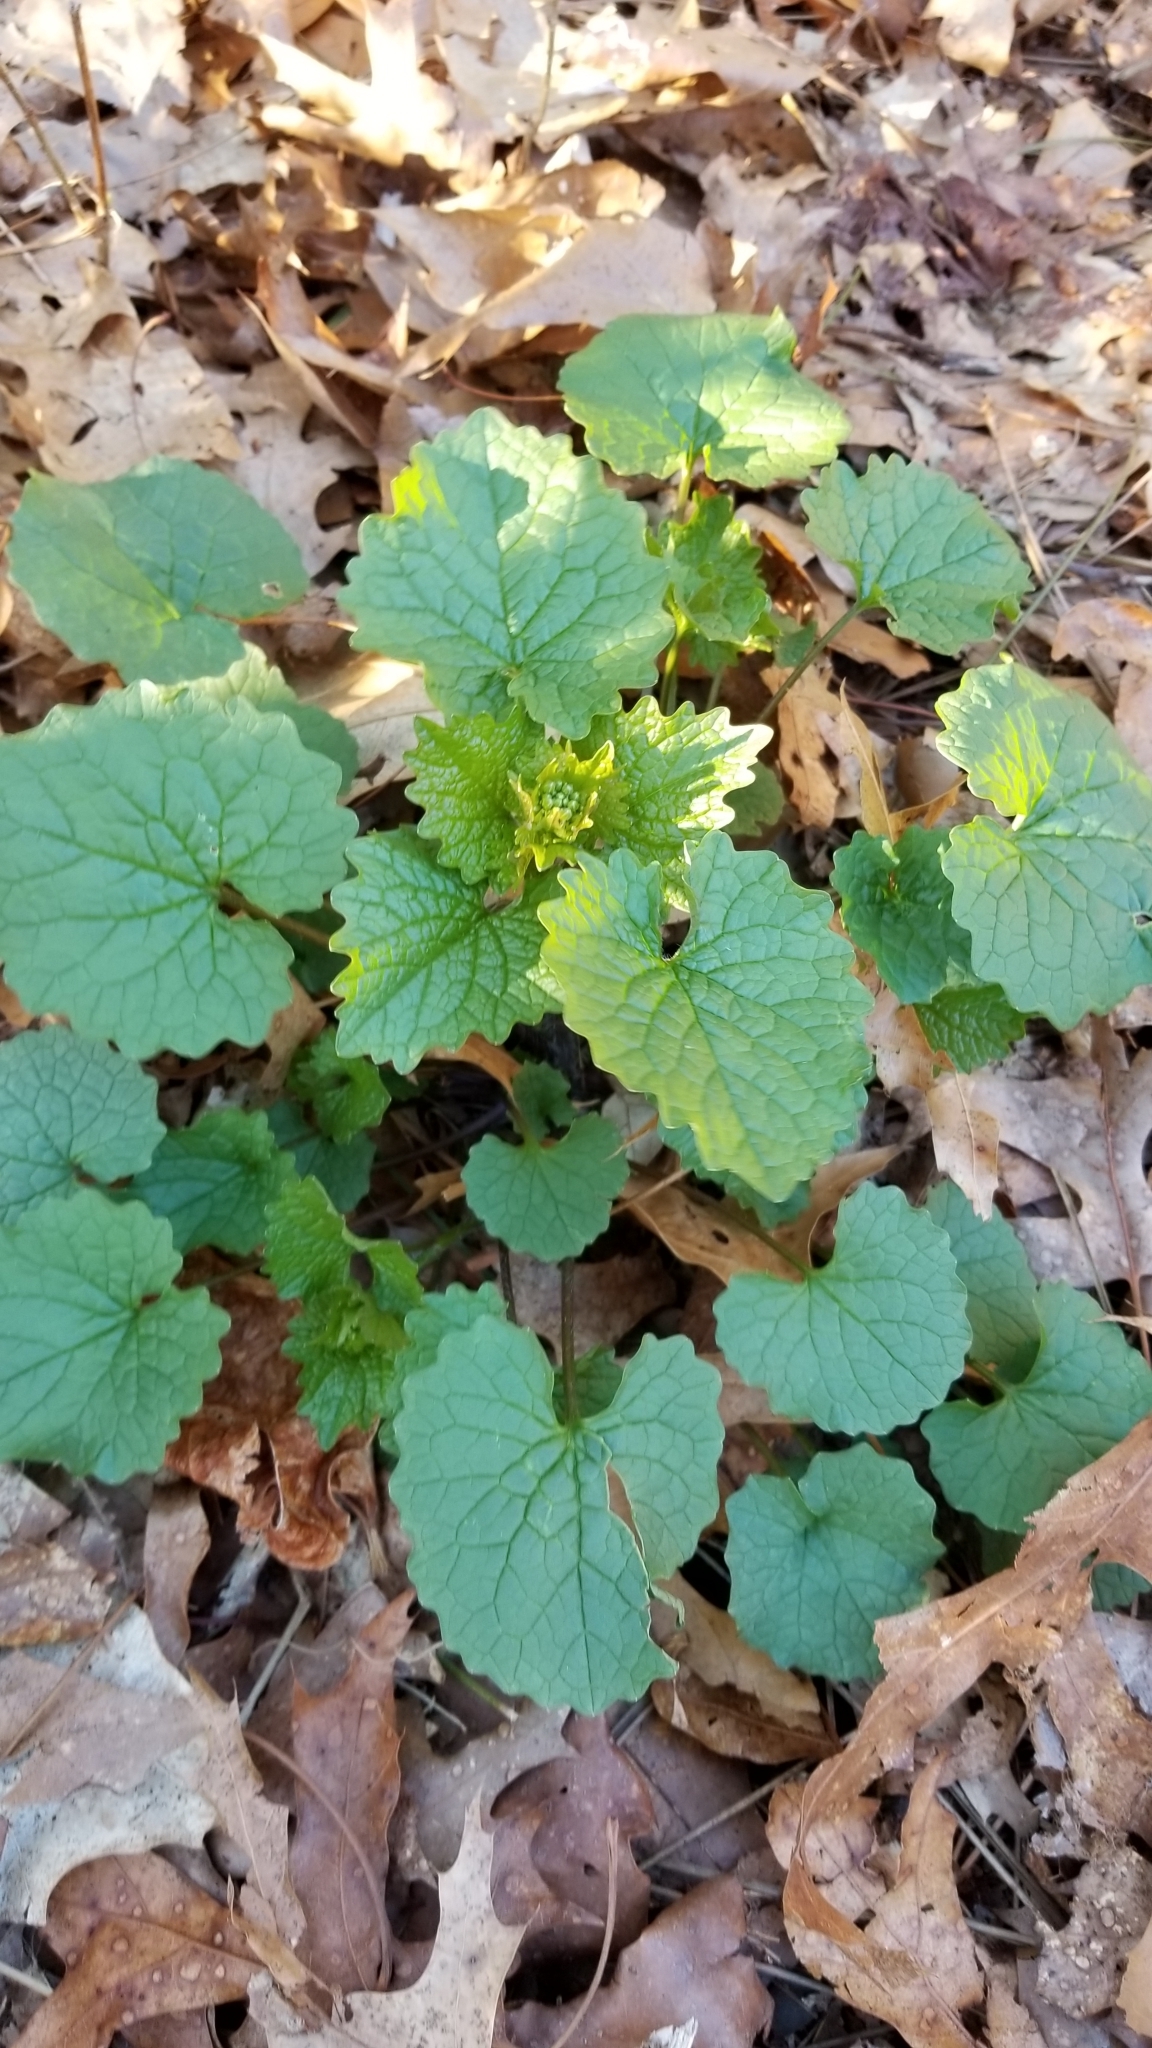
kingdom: Plantae
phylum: Tracheophyta
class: Magnoliopsida
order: Brassicales
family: Brassicaceae
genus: Alliaria
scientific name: Alliaria petiolata
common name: Garlic mustard
